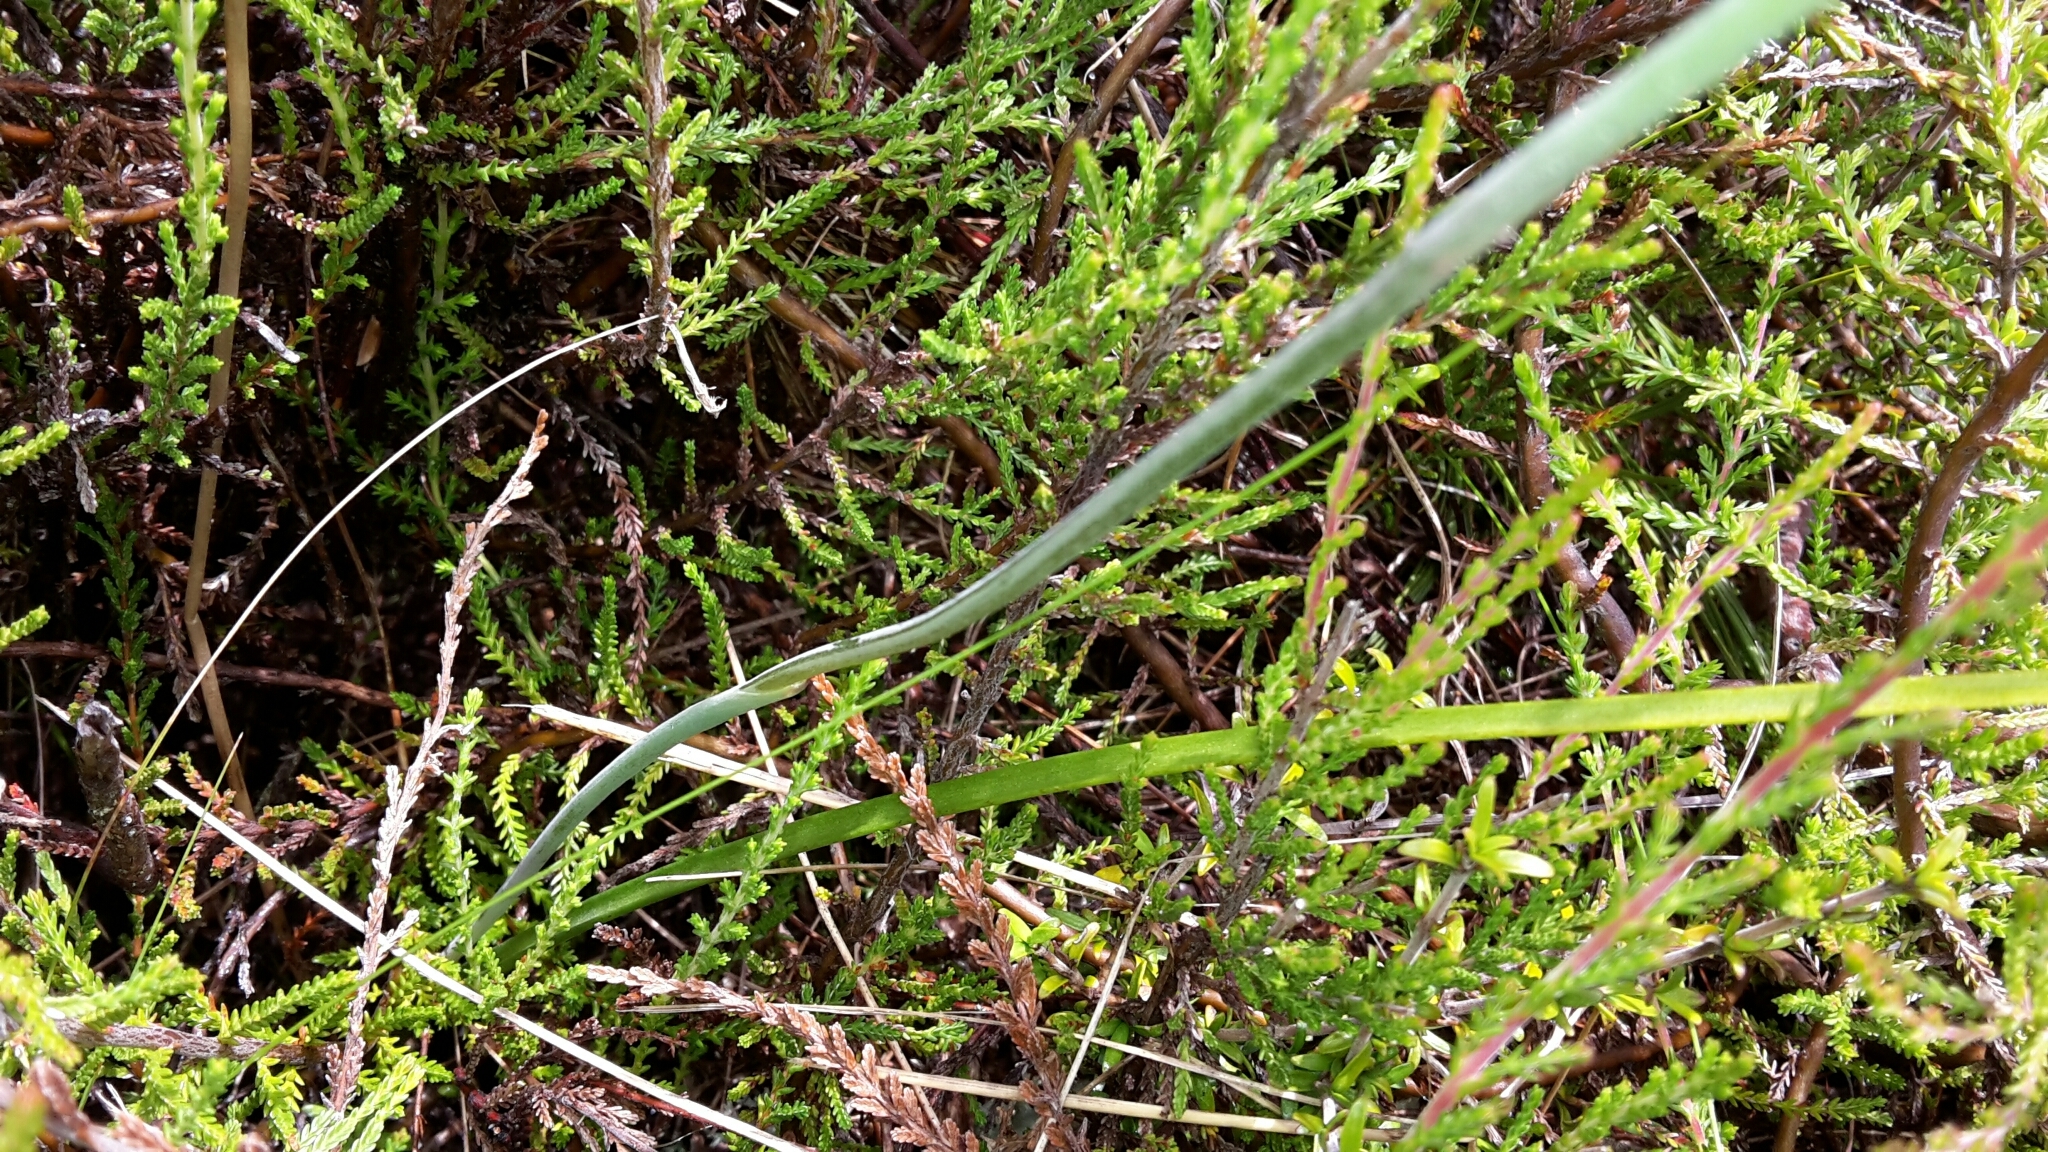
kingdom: Plantae
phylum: Tracheophyta
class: Liliopsida
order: Asparagales
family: Orchidaceae
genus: Thelymitra
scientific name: Thelymitra nervosa
